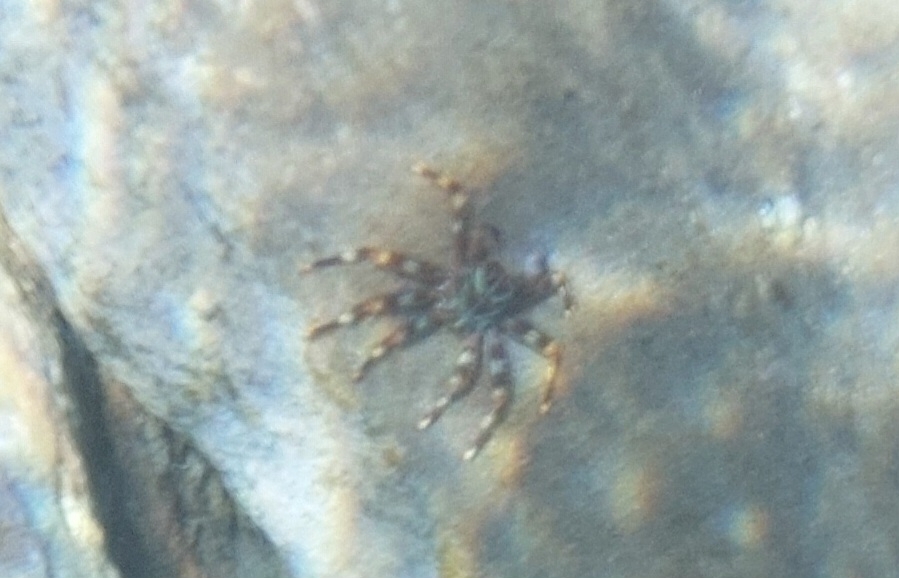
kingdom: Animalia
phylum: Arthropoda
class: Malacostraca
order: Decapoda
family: Percnidae
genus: Percnon
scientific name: Percnon gibbesi
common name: Nimble spray crab
